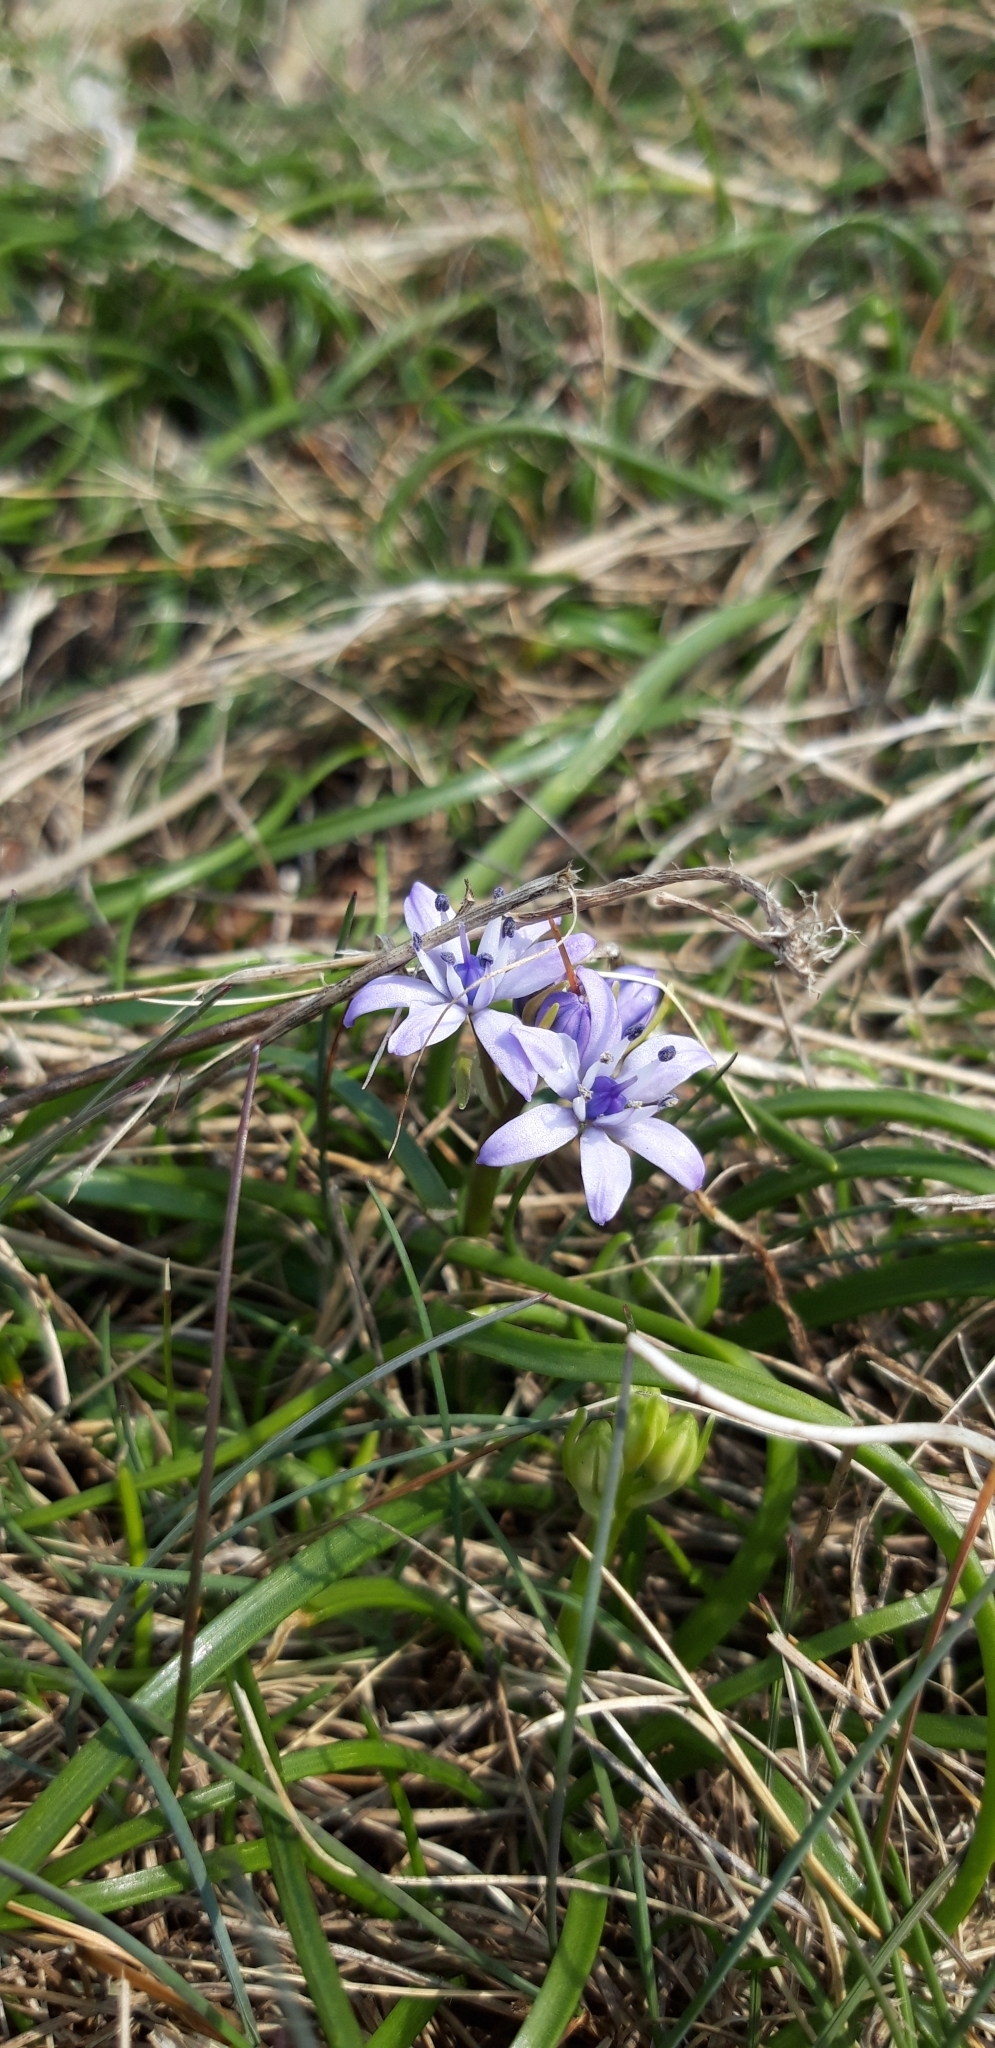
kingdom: Plantae
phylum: Tracheophyta
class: Liliopsida
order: Asparagales
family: Asparagaceae
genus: Scilla
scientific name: Scilla verna
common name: Spring squill
